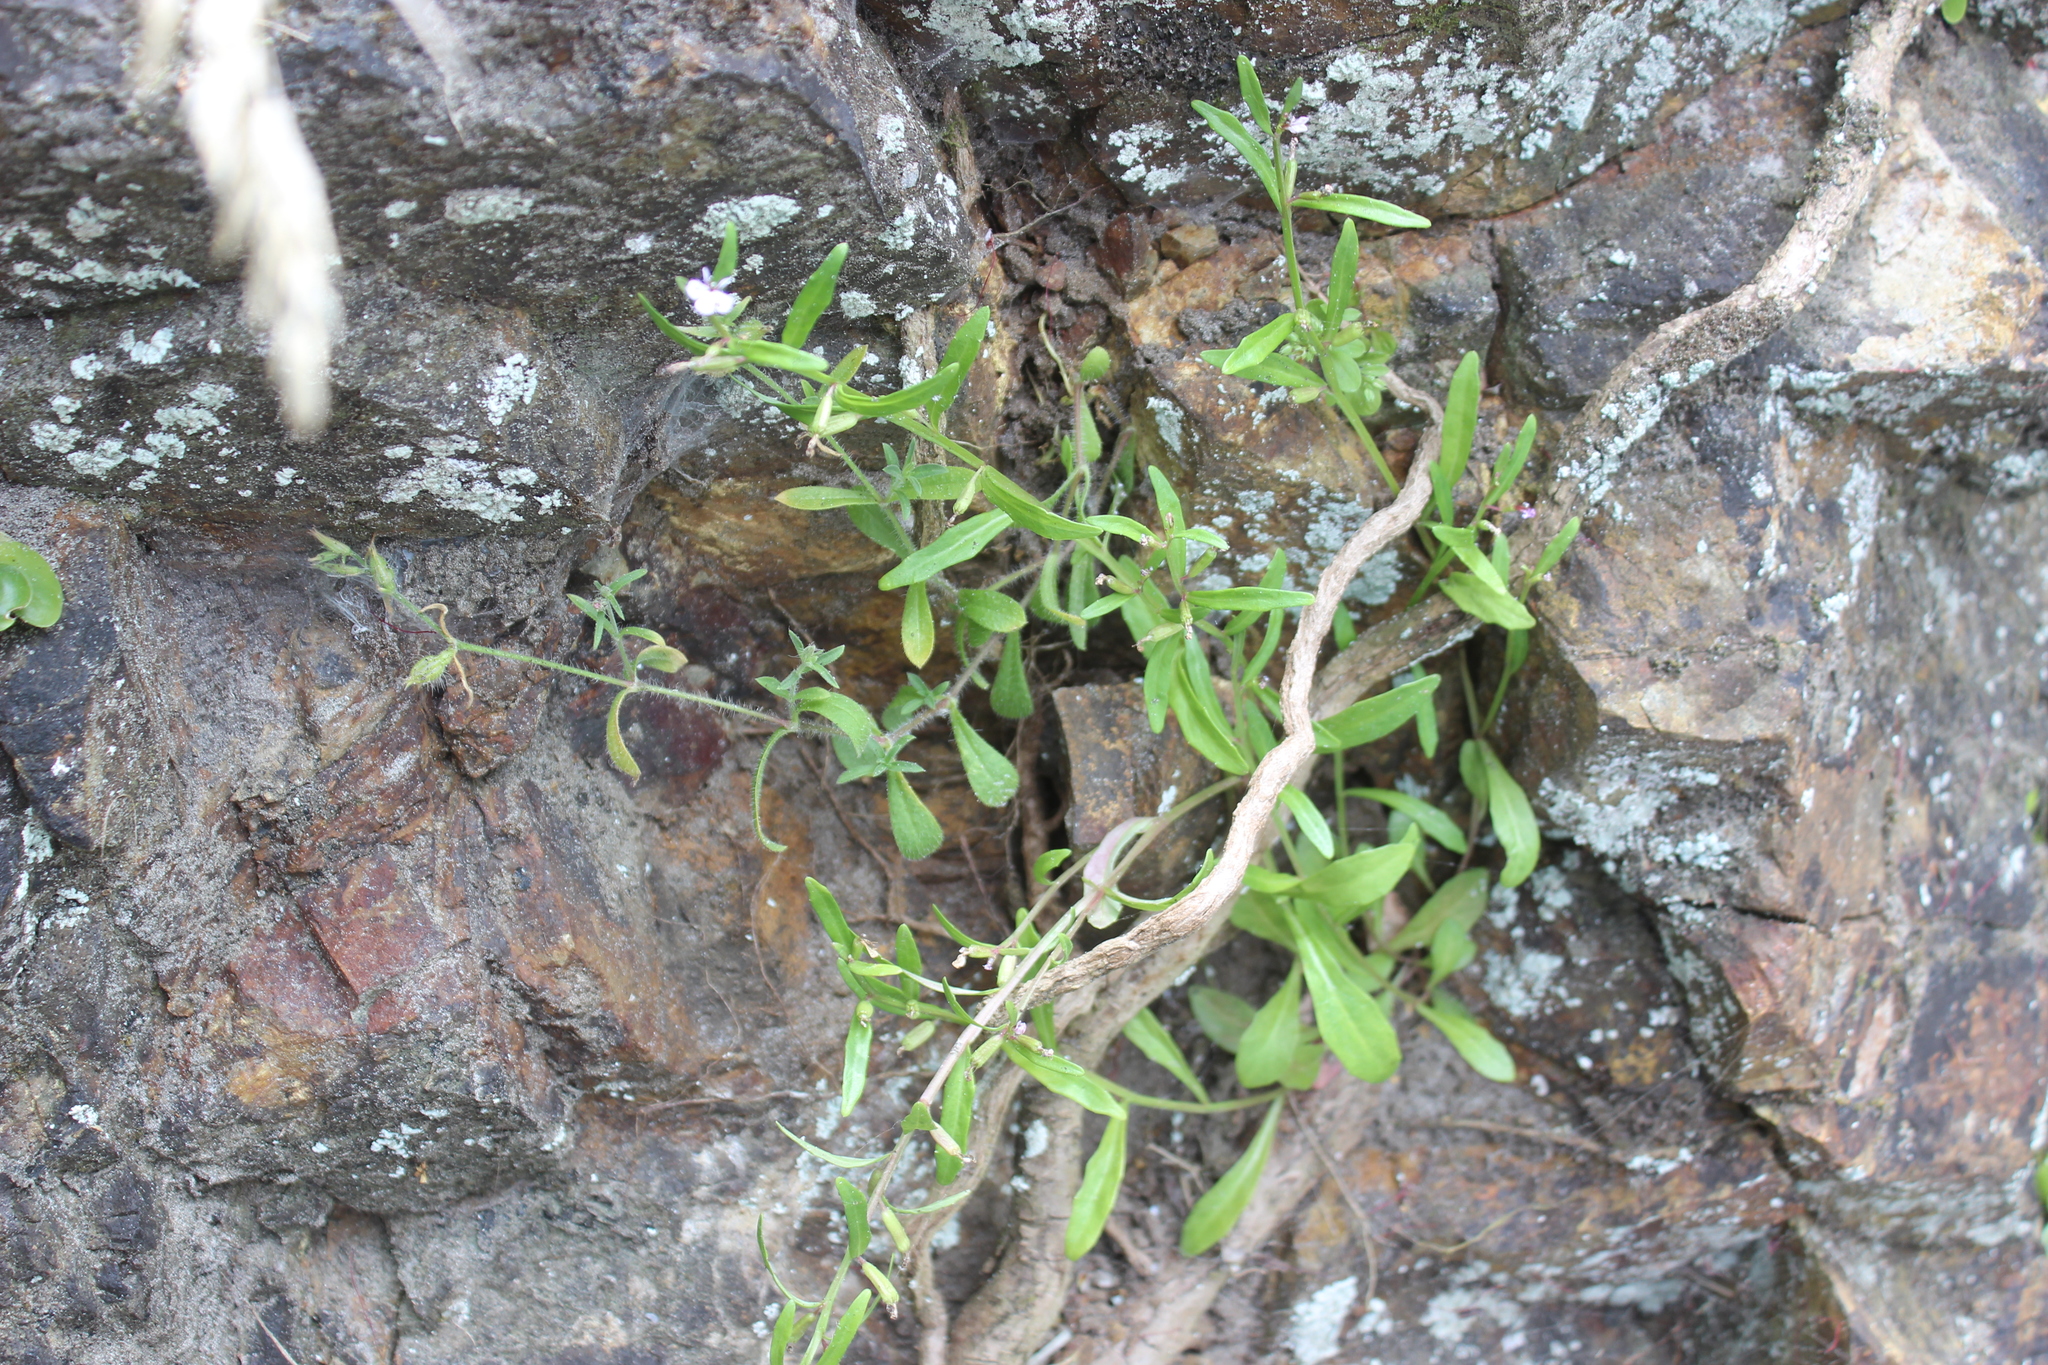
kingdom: Plantae
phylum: Tracheophyta
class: Magnoliopsida
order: Asterales
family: Campanulaceae
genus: Lobelia
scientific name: Lobelia anceps
